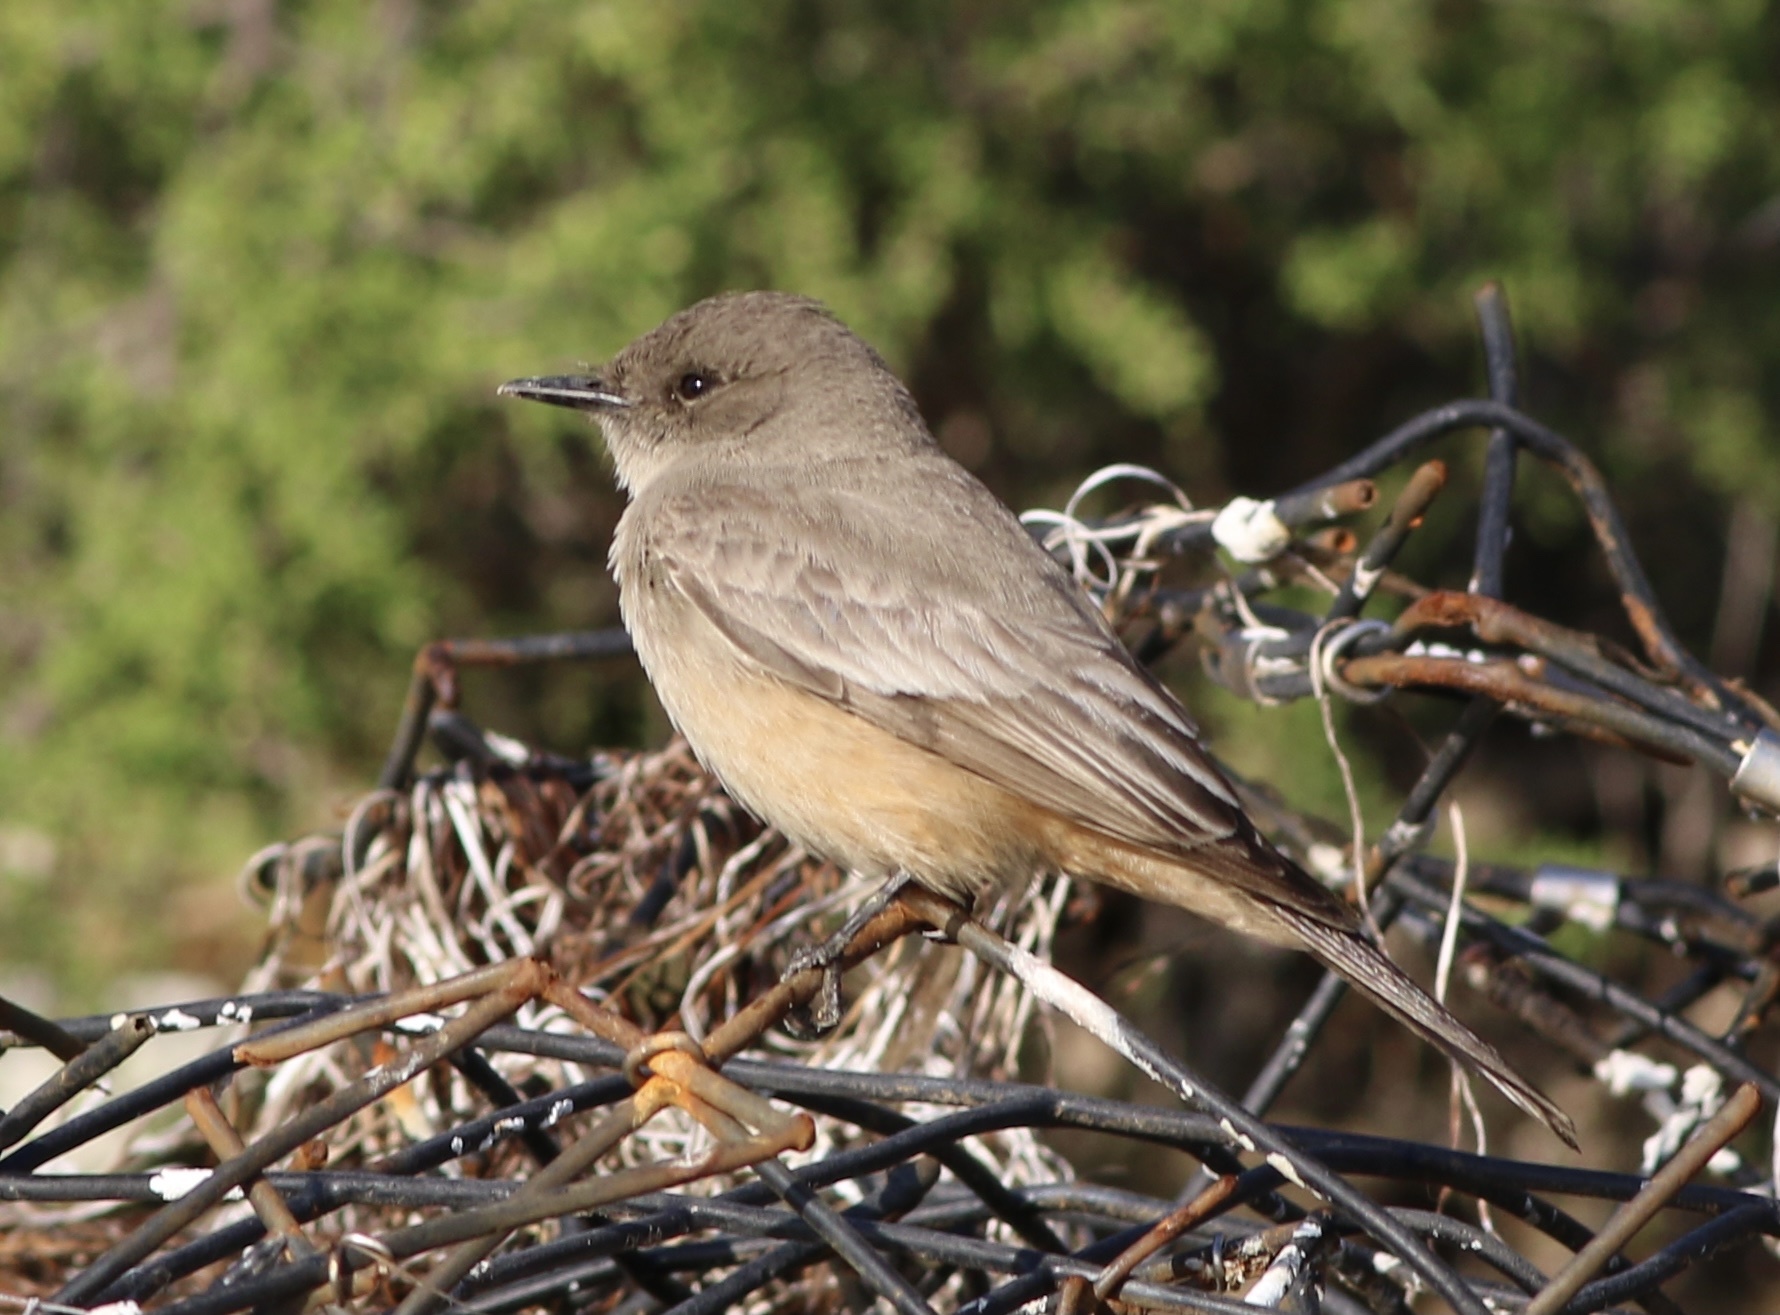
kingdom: Animalia
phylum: Chordata
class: Aves
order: Passeriformes
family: Tyrannidae
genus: Sayornis
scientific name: Sayornis saya
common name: Say's phoebe
